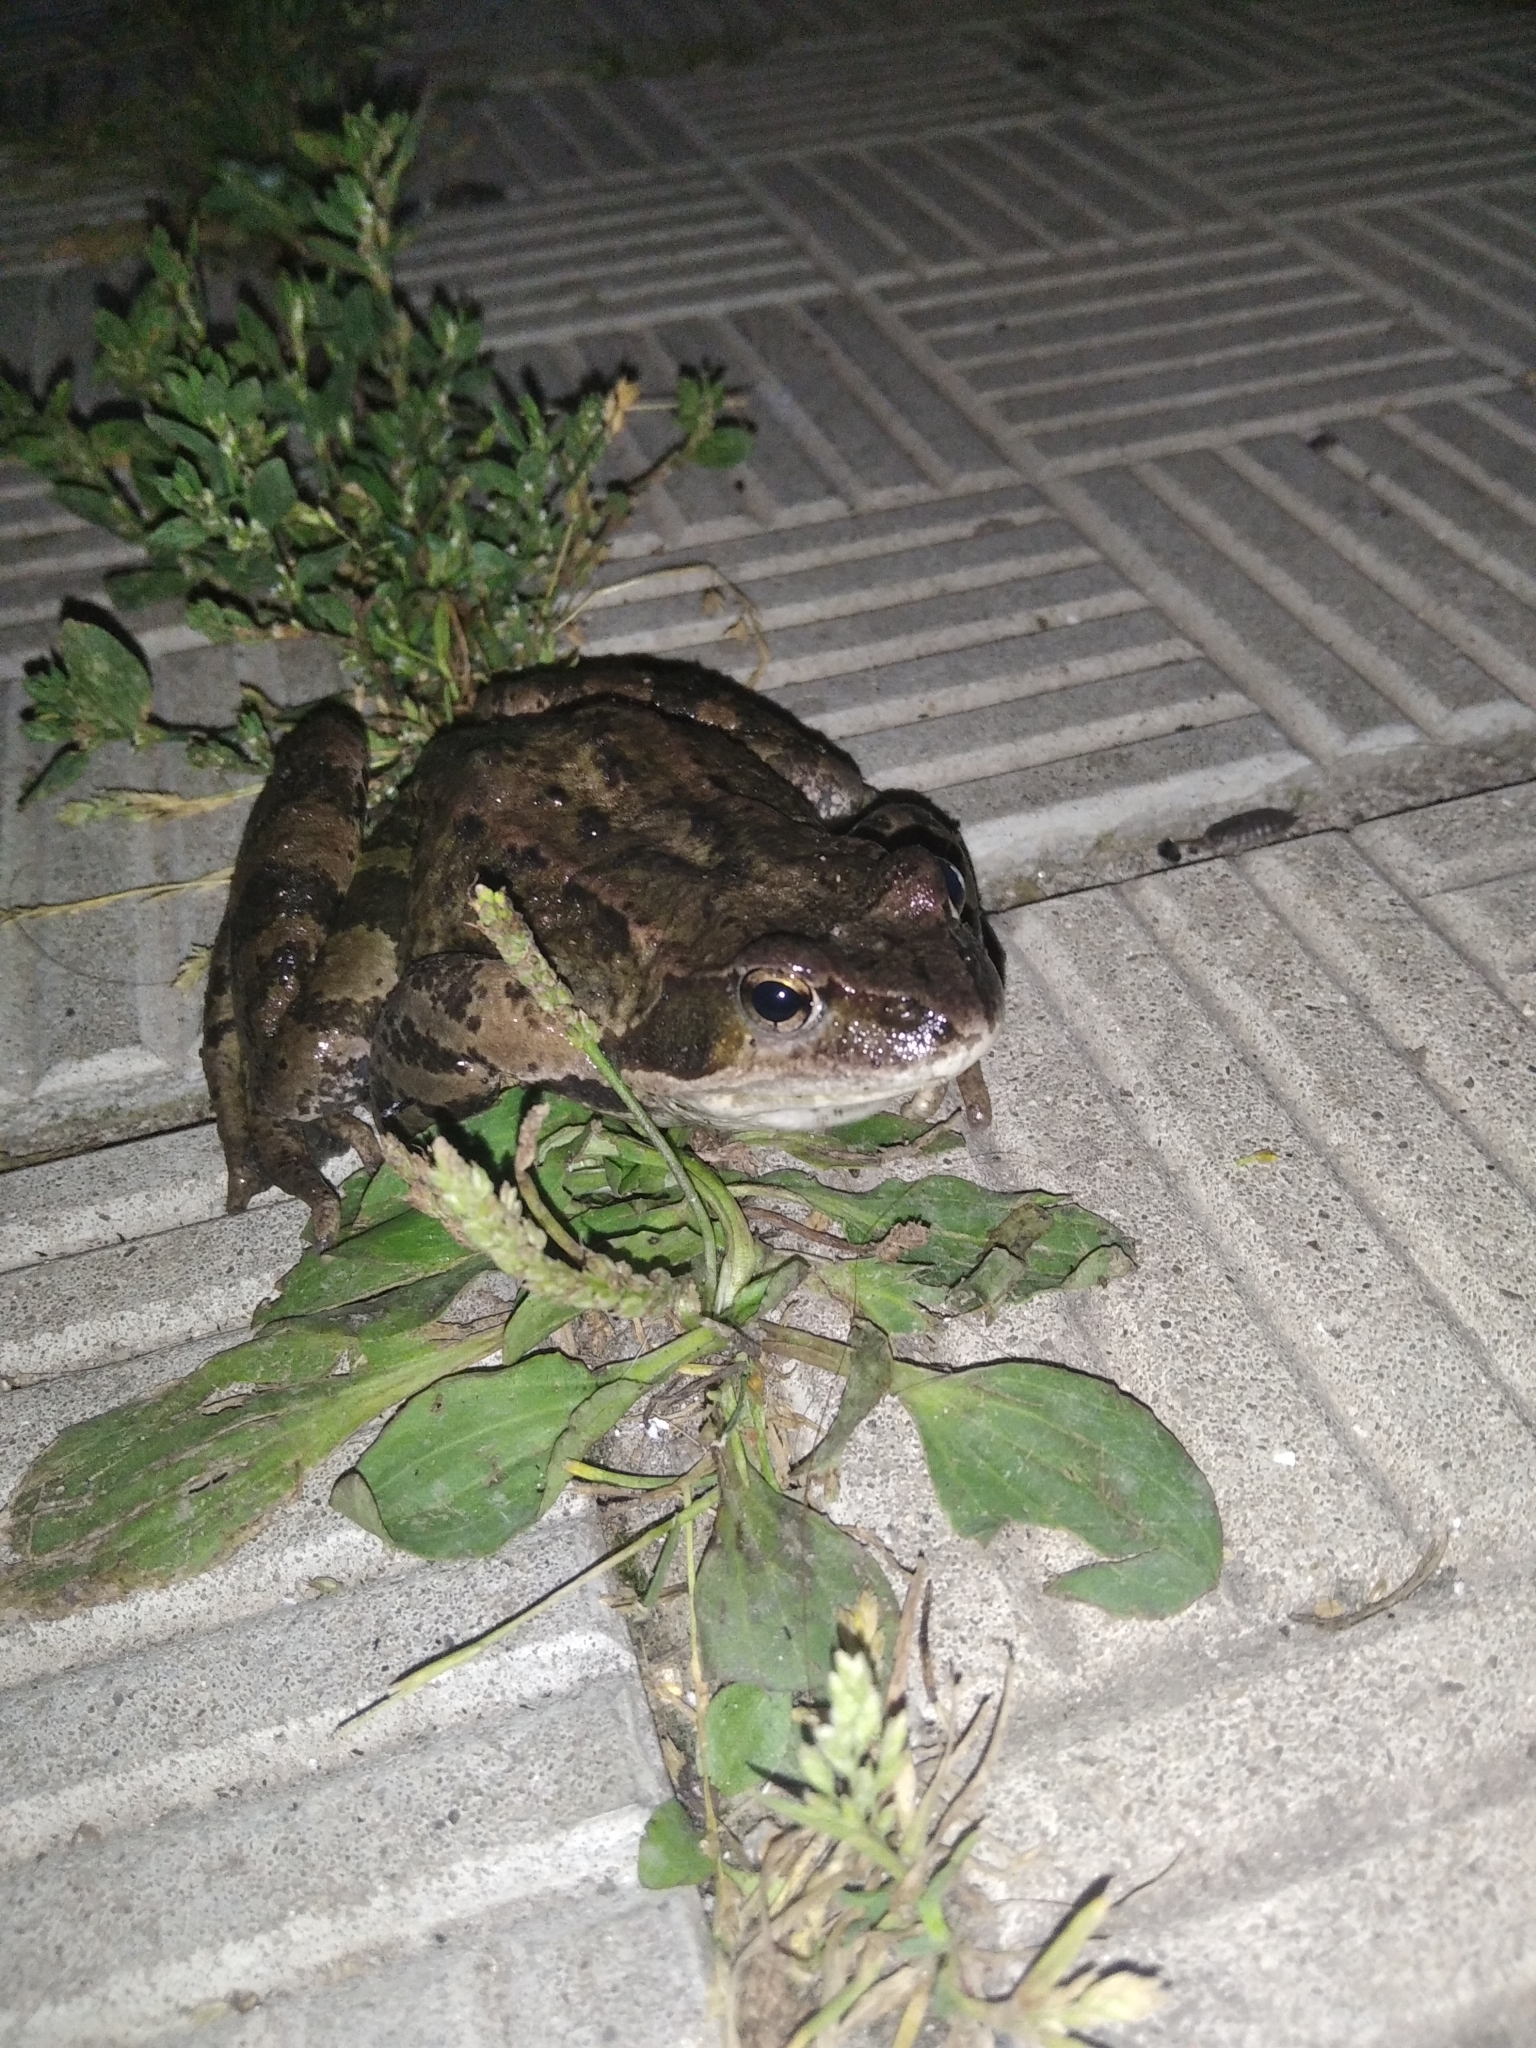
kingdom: Animalia
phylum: Chordata
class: Amphibia
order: Anura
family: Ranidae
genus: Rana
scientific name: Rana temporaria
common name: Common frog
